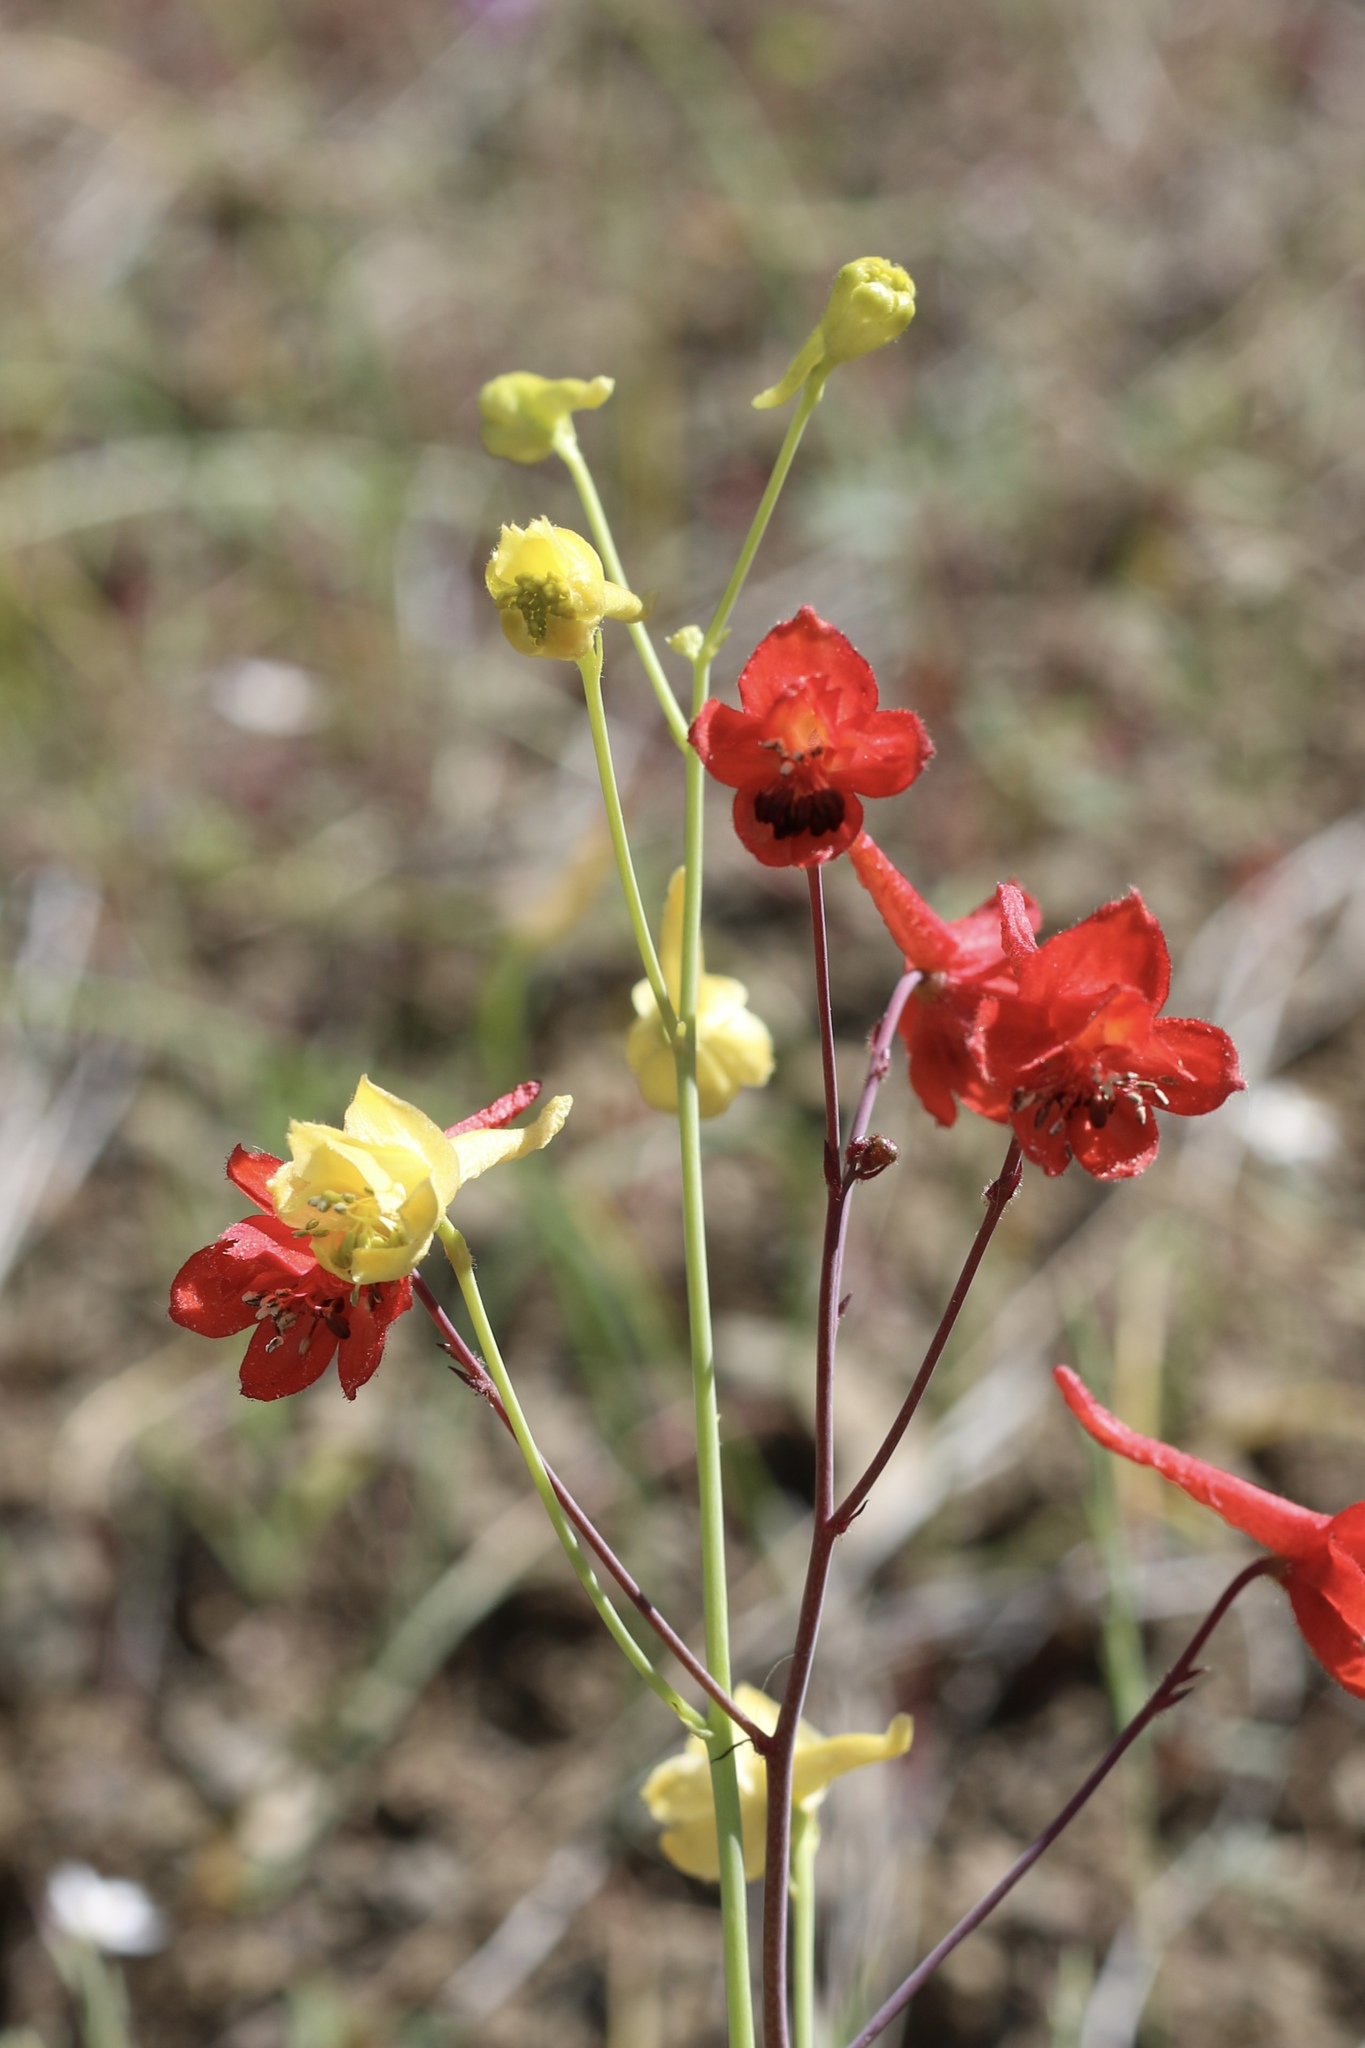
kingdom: Plantae
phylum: Tracheophyta
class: Magnoliopsida
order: Ranunculales
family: Ranunculaceae
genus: Delphinium
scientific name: Delphinium nudicaule
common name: Red larkspur
